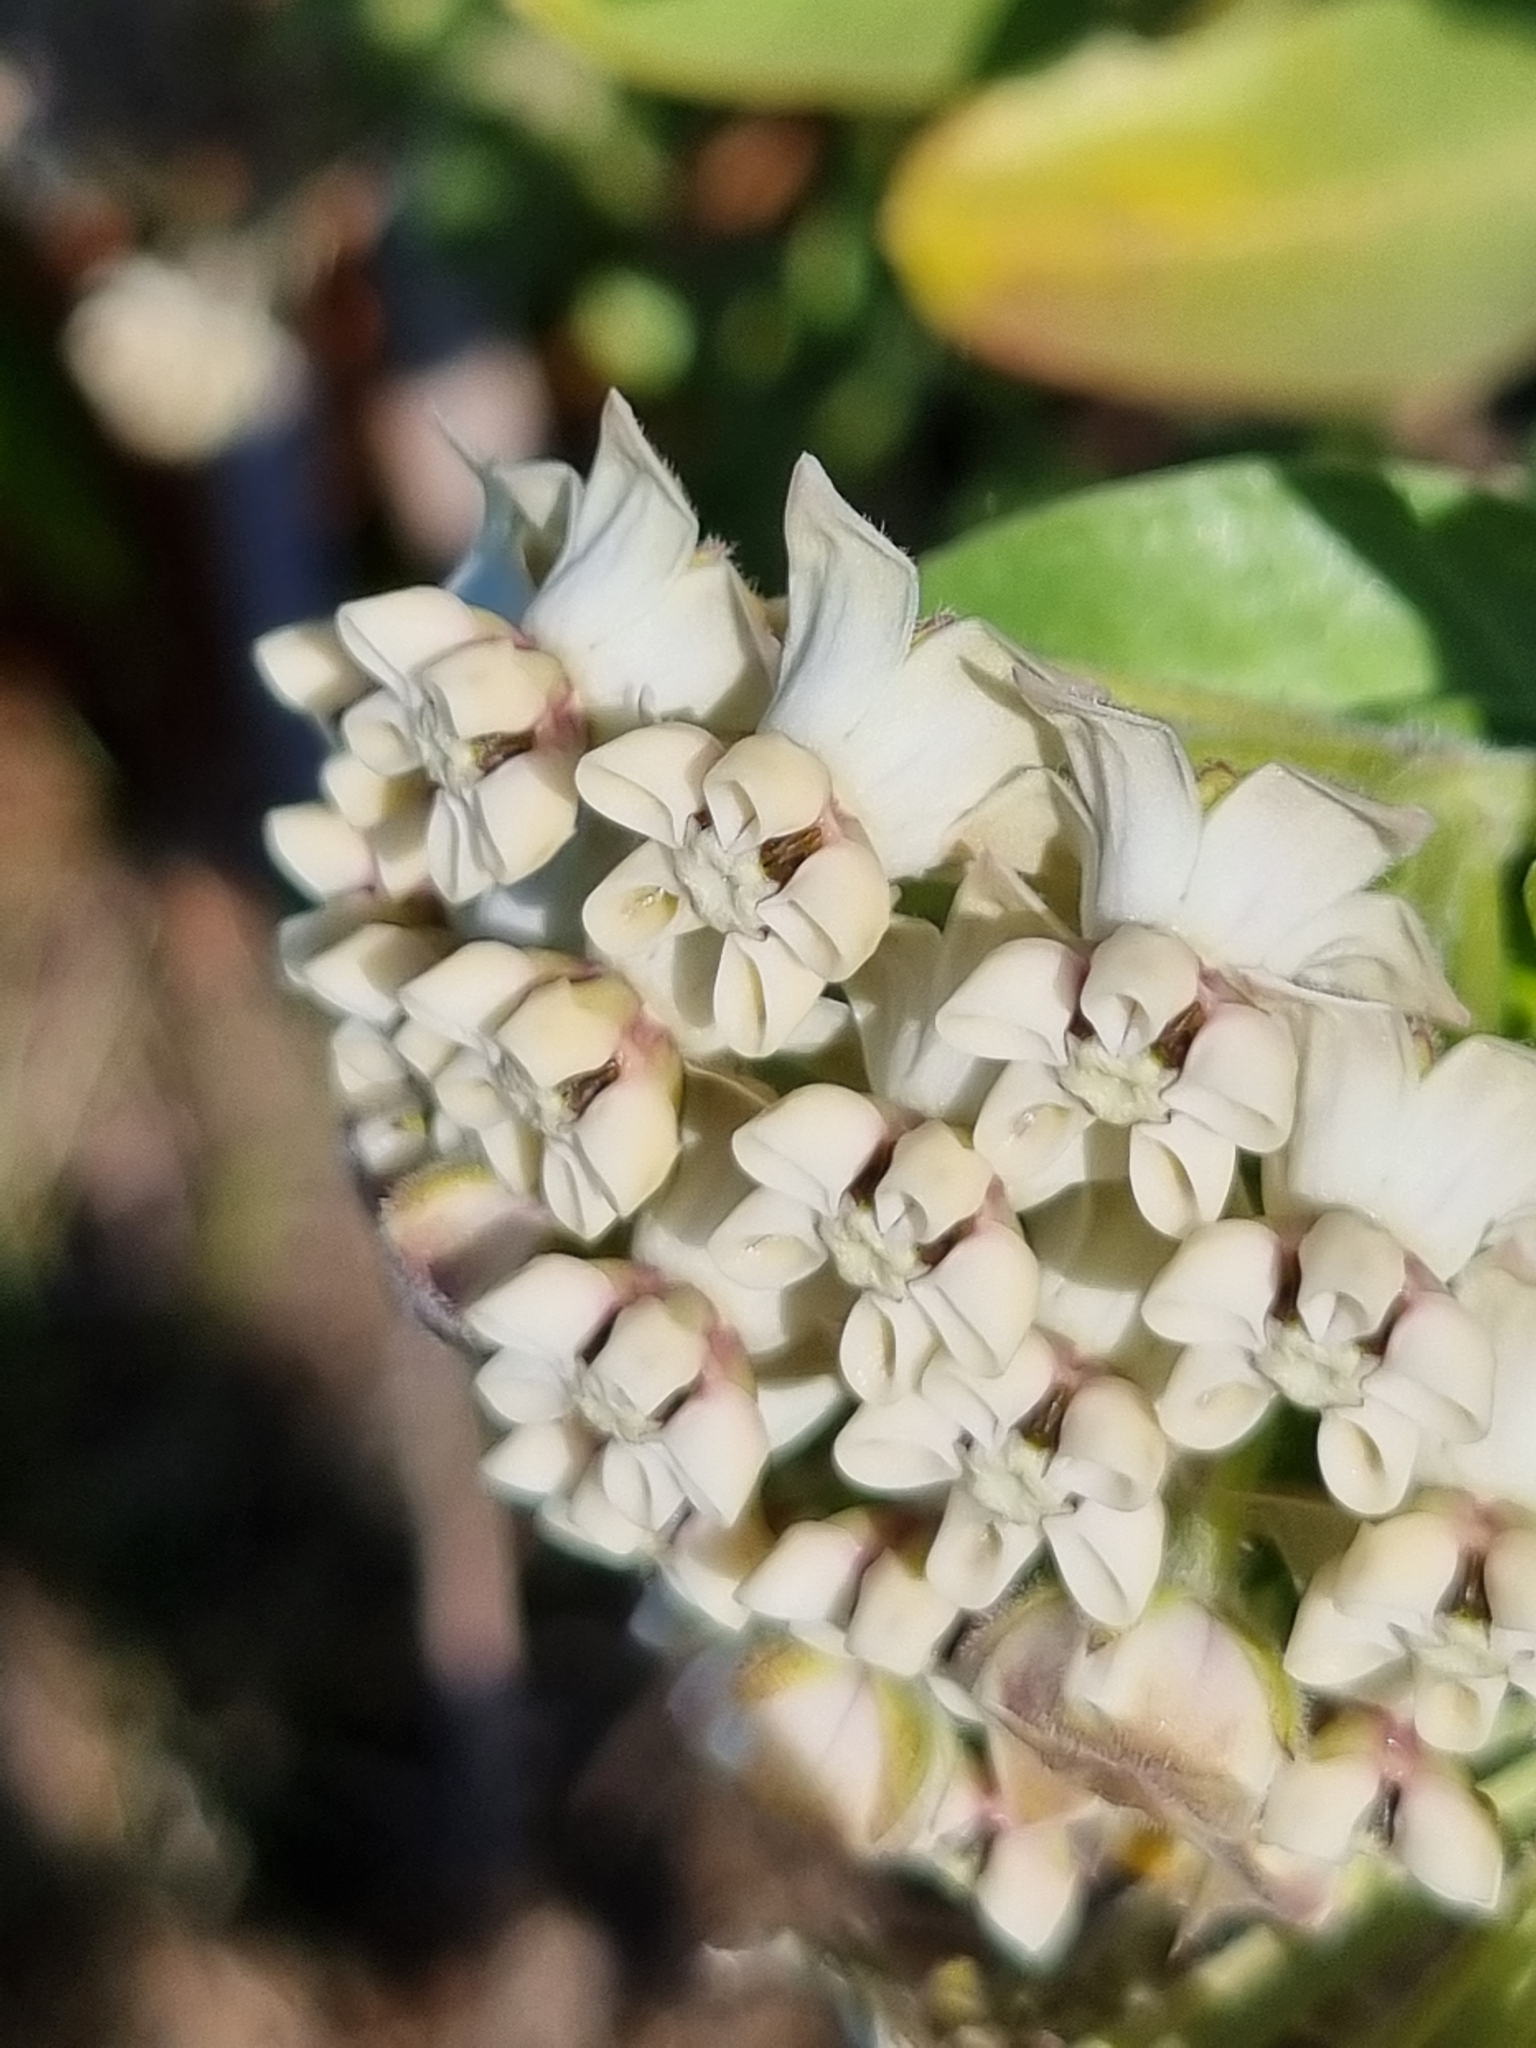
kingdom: Plantae
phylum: Tracheophyta
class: Magnoliopsida
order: Gentianales
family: Apocynaceae
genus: Gomphocarpus
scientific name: Gomphocarpus cancellatus
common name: Wild cotton
